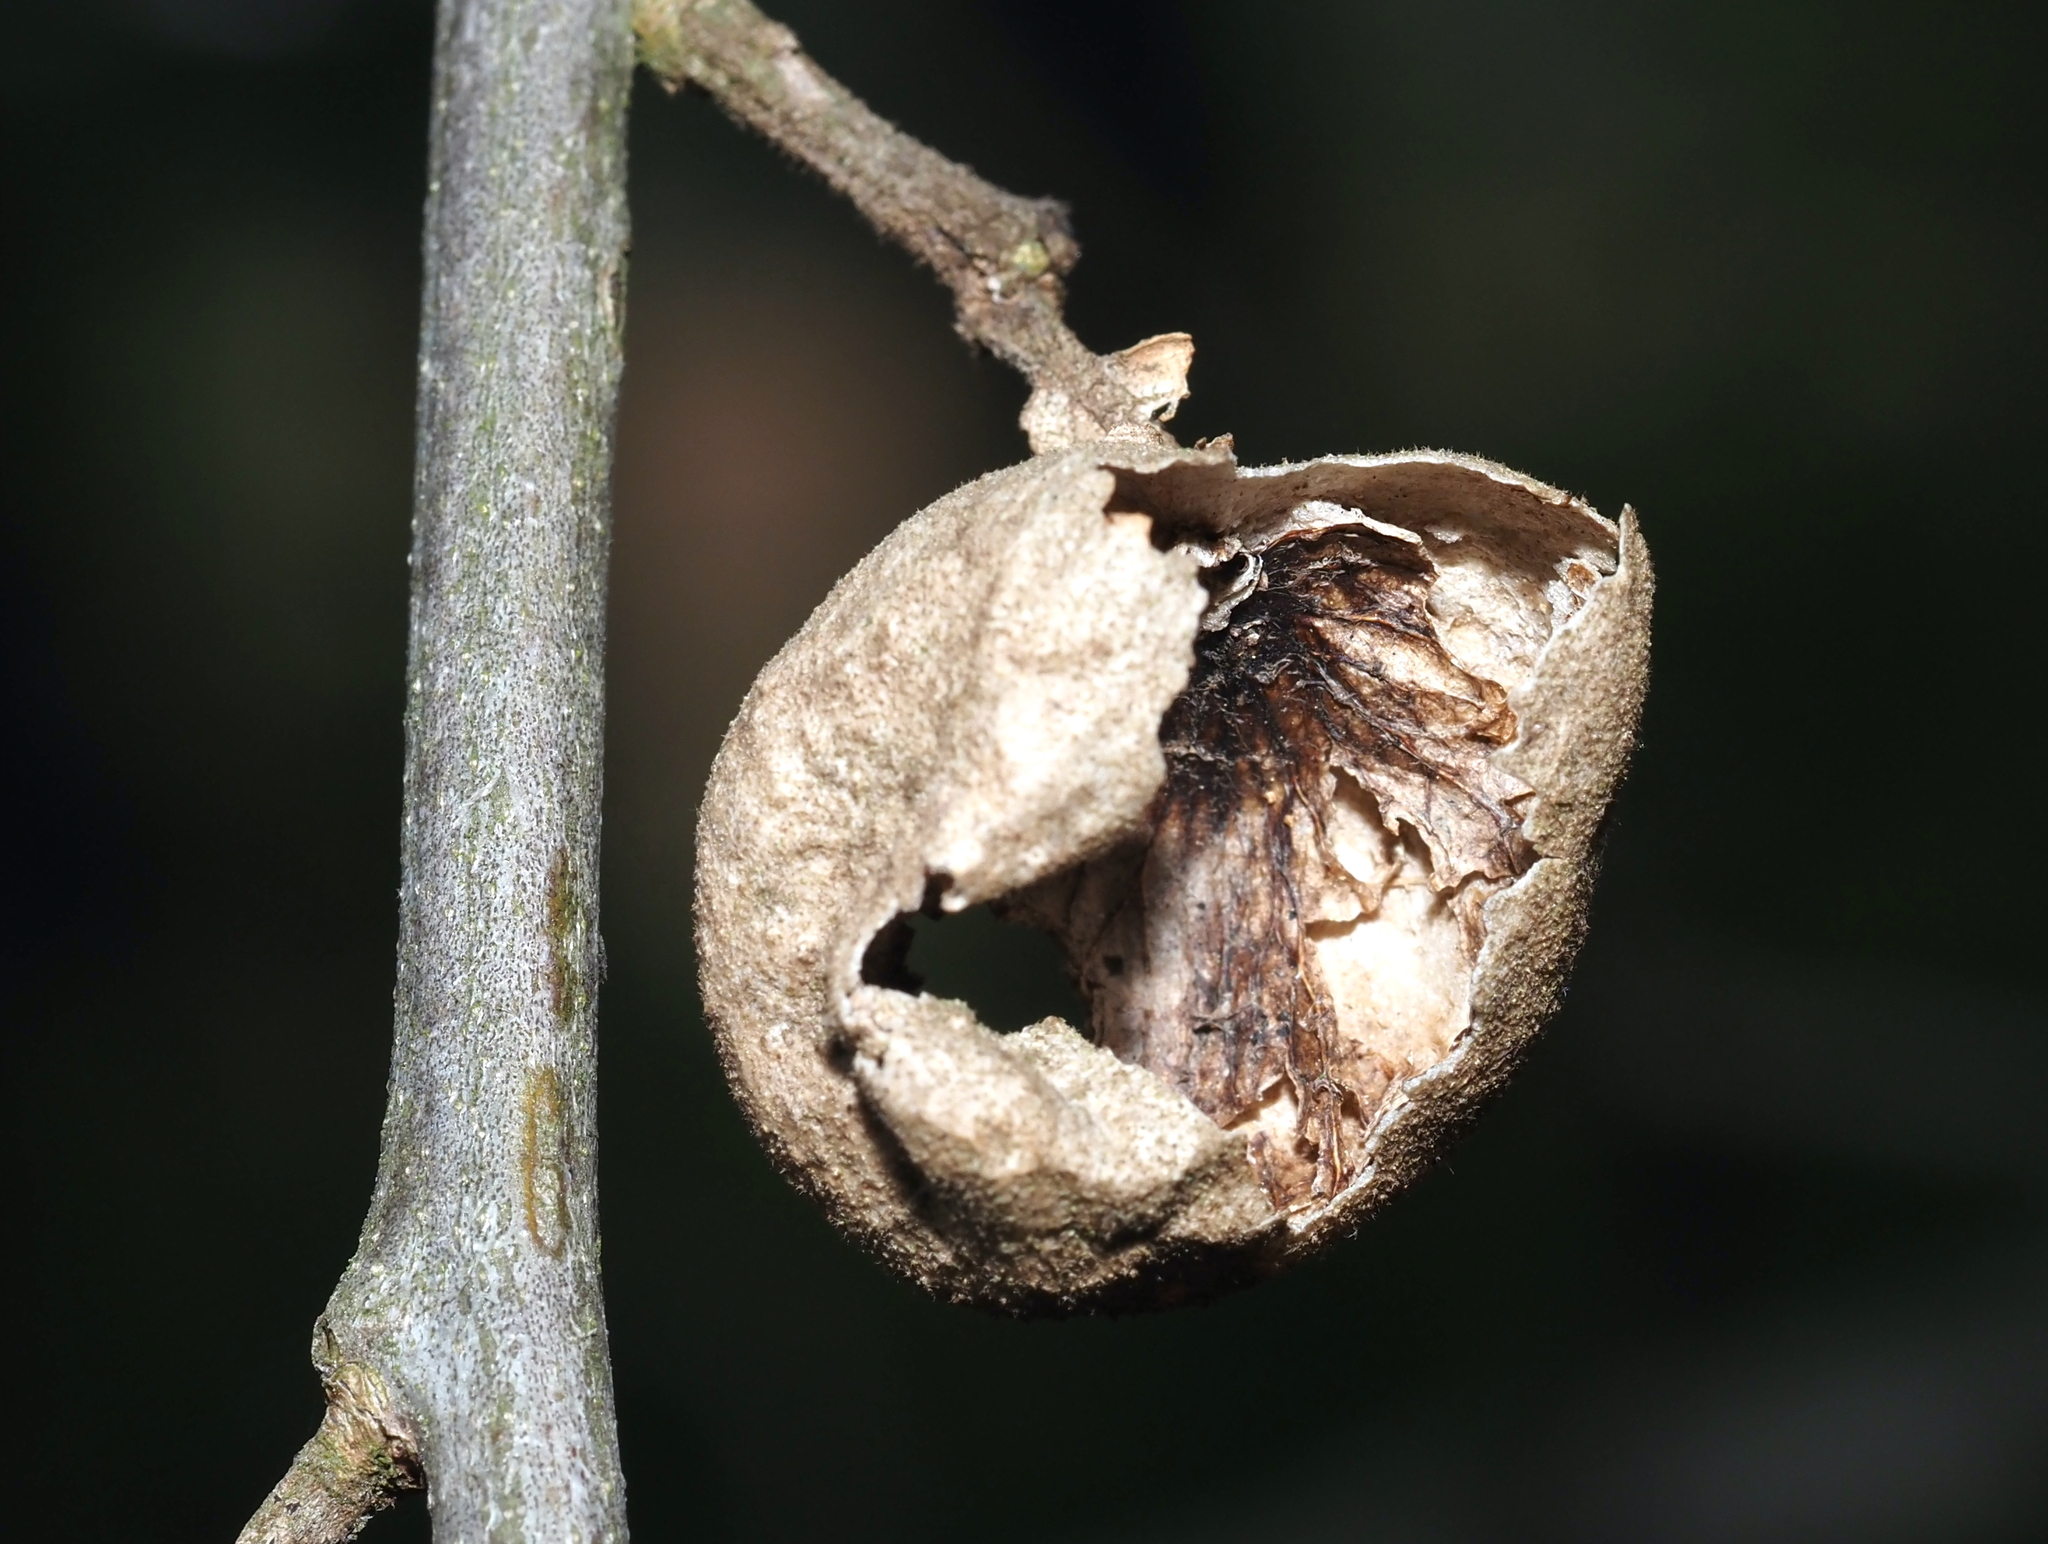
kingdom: Animalia
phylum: Arthropoda
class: Insecta
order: Hymenoptera
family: Cynipidae
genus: Amphibolips
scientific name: Amphibolips
